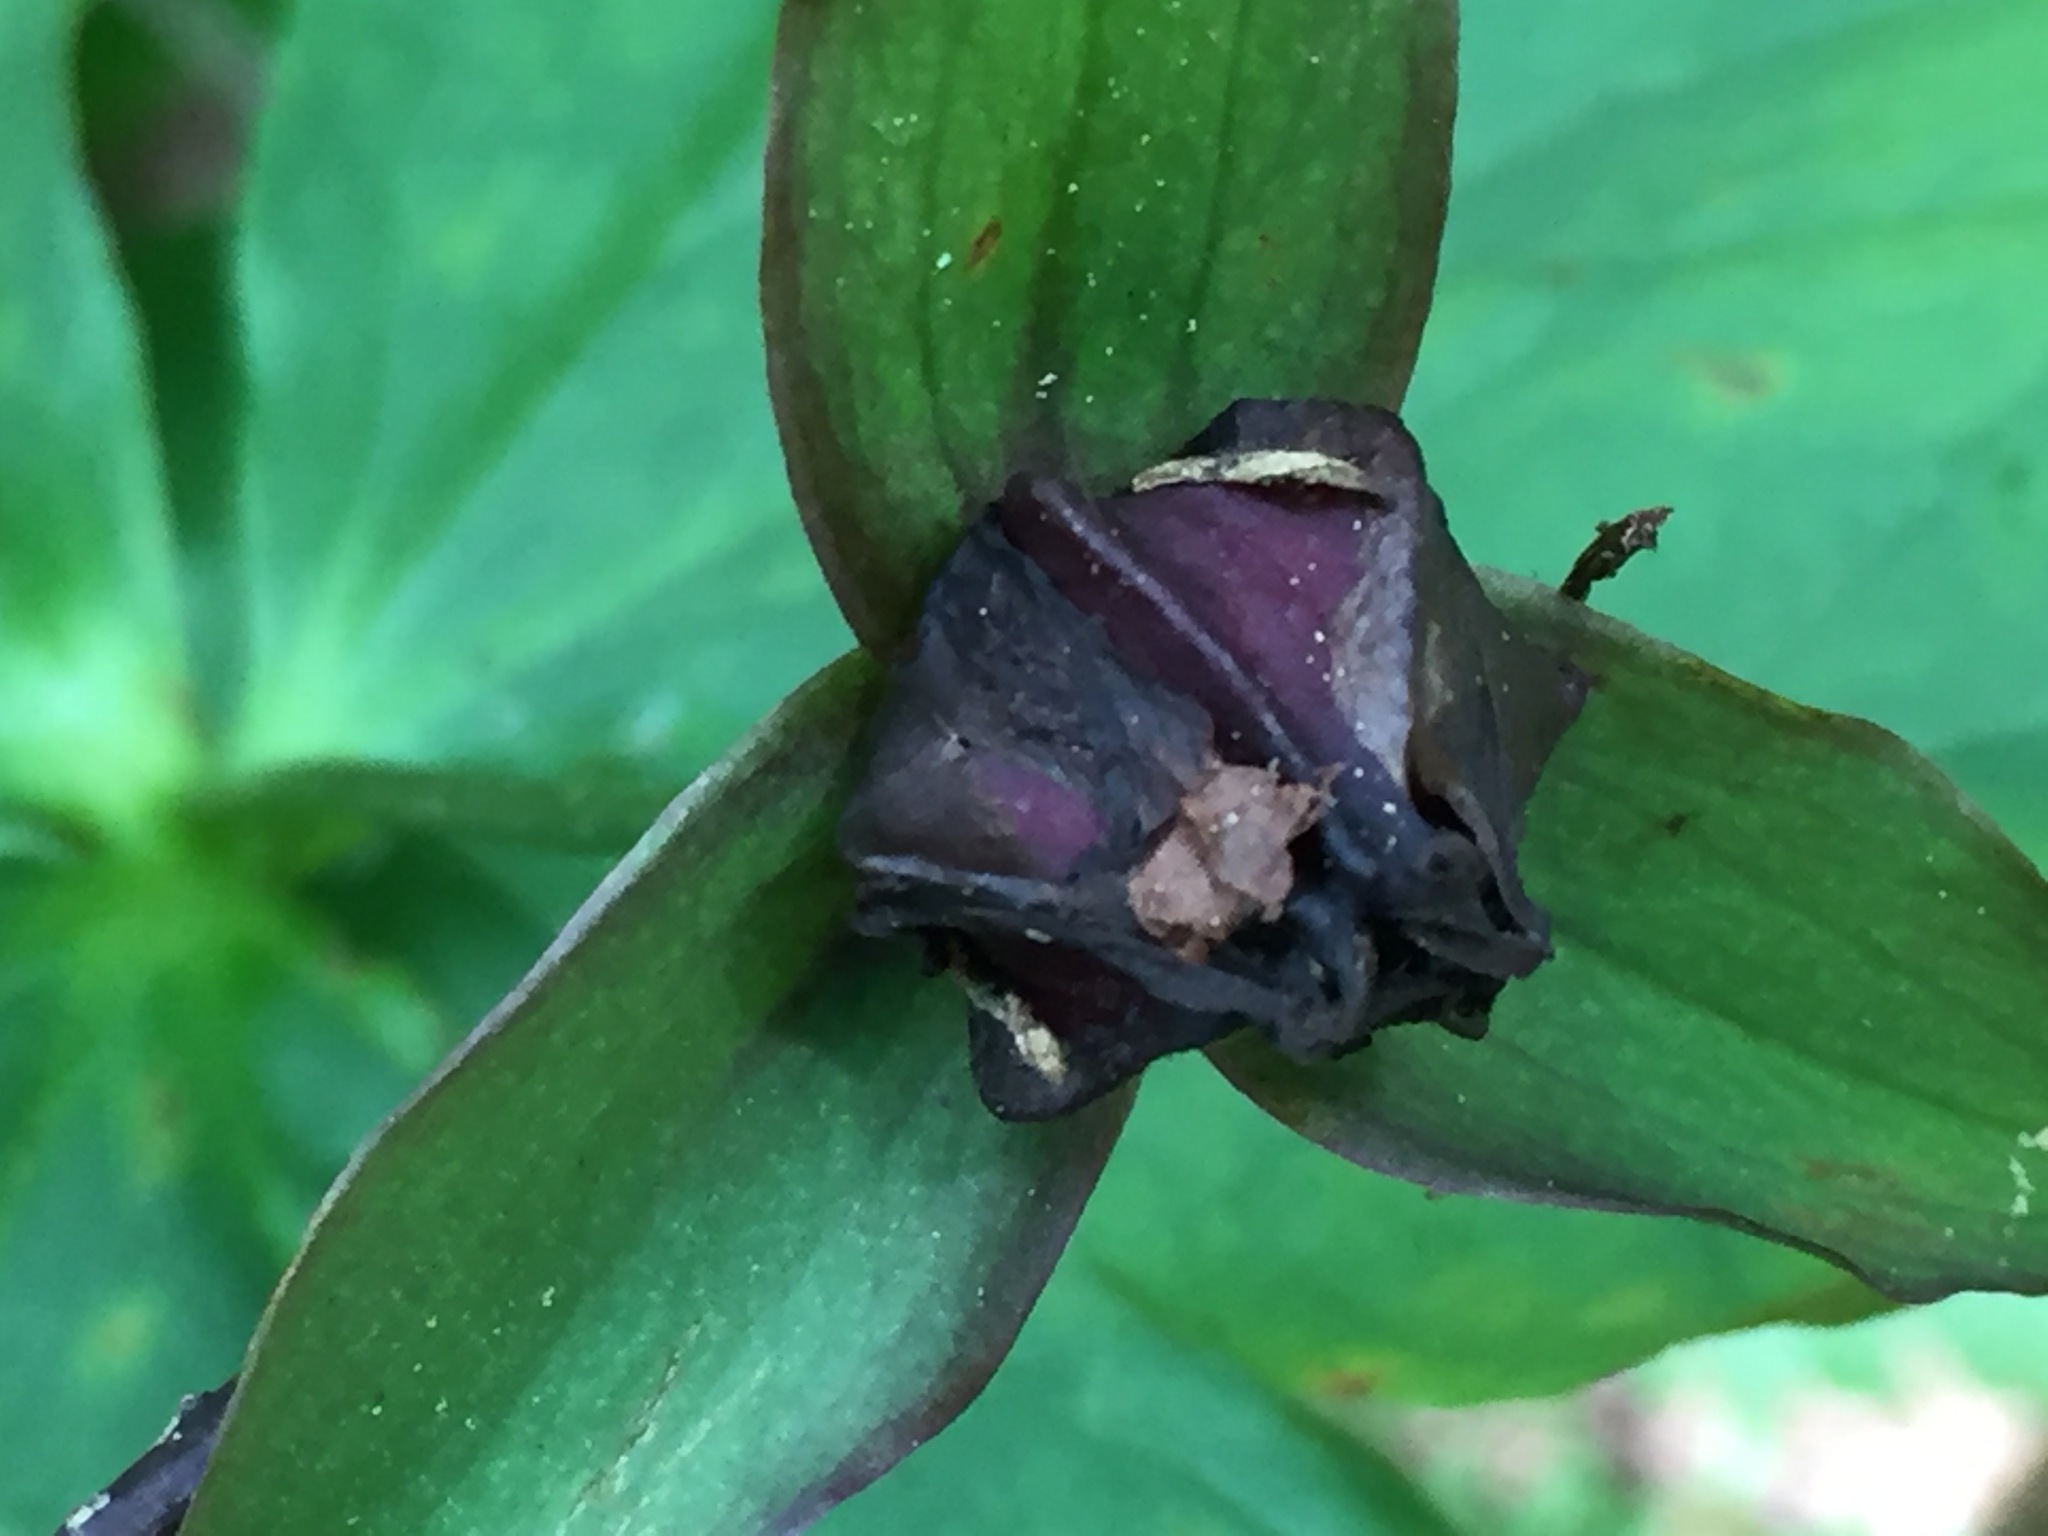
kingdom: Plantae
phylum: Tracheophyta
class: Liliopsida
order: Liliales
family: Melanthiaceae
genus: Trillium
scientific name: Trillium erectum
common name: Purple trillium
